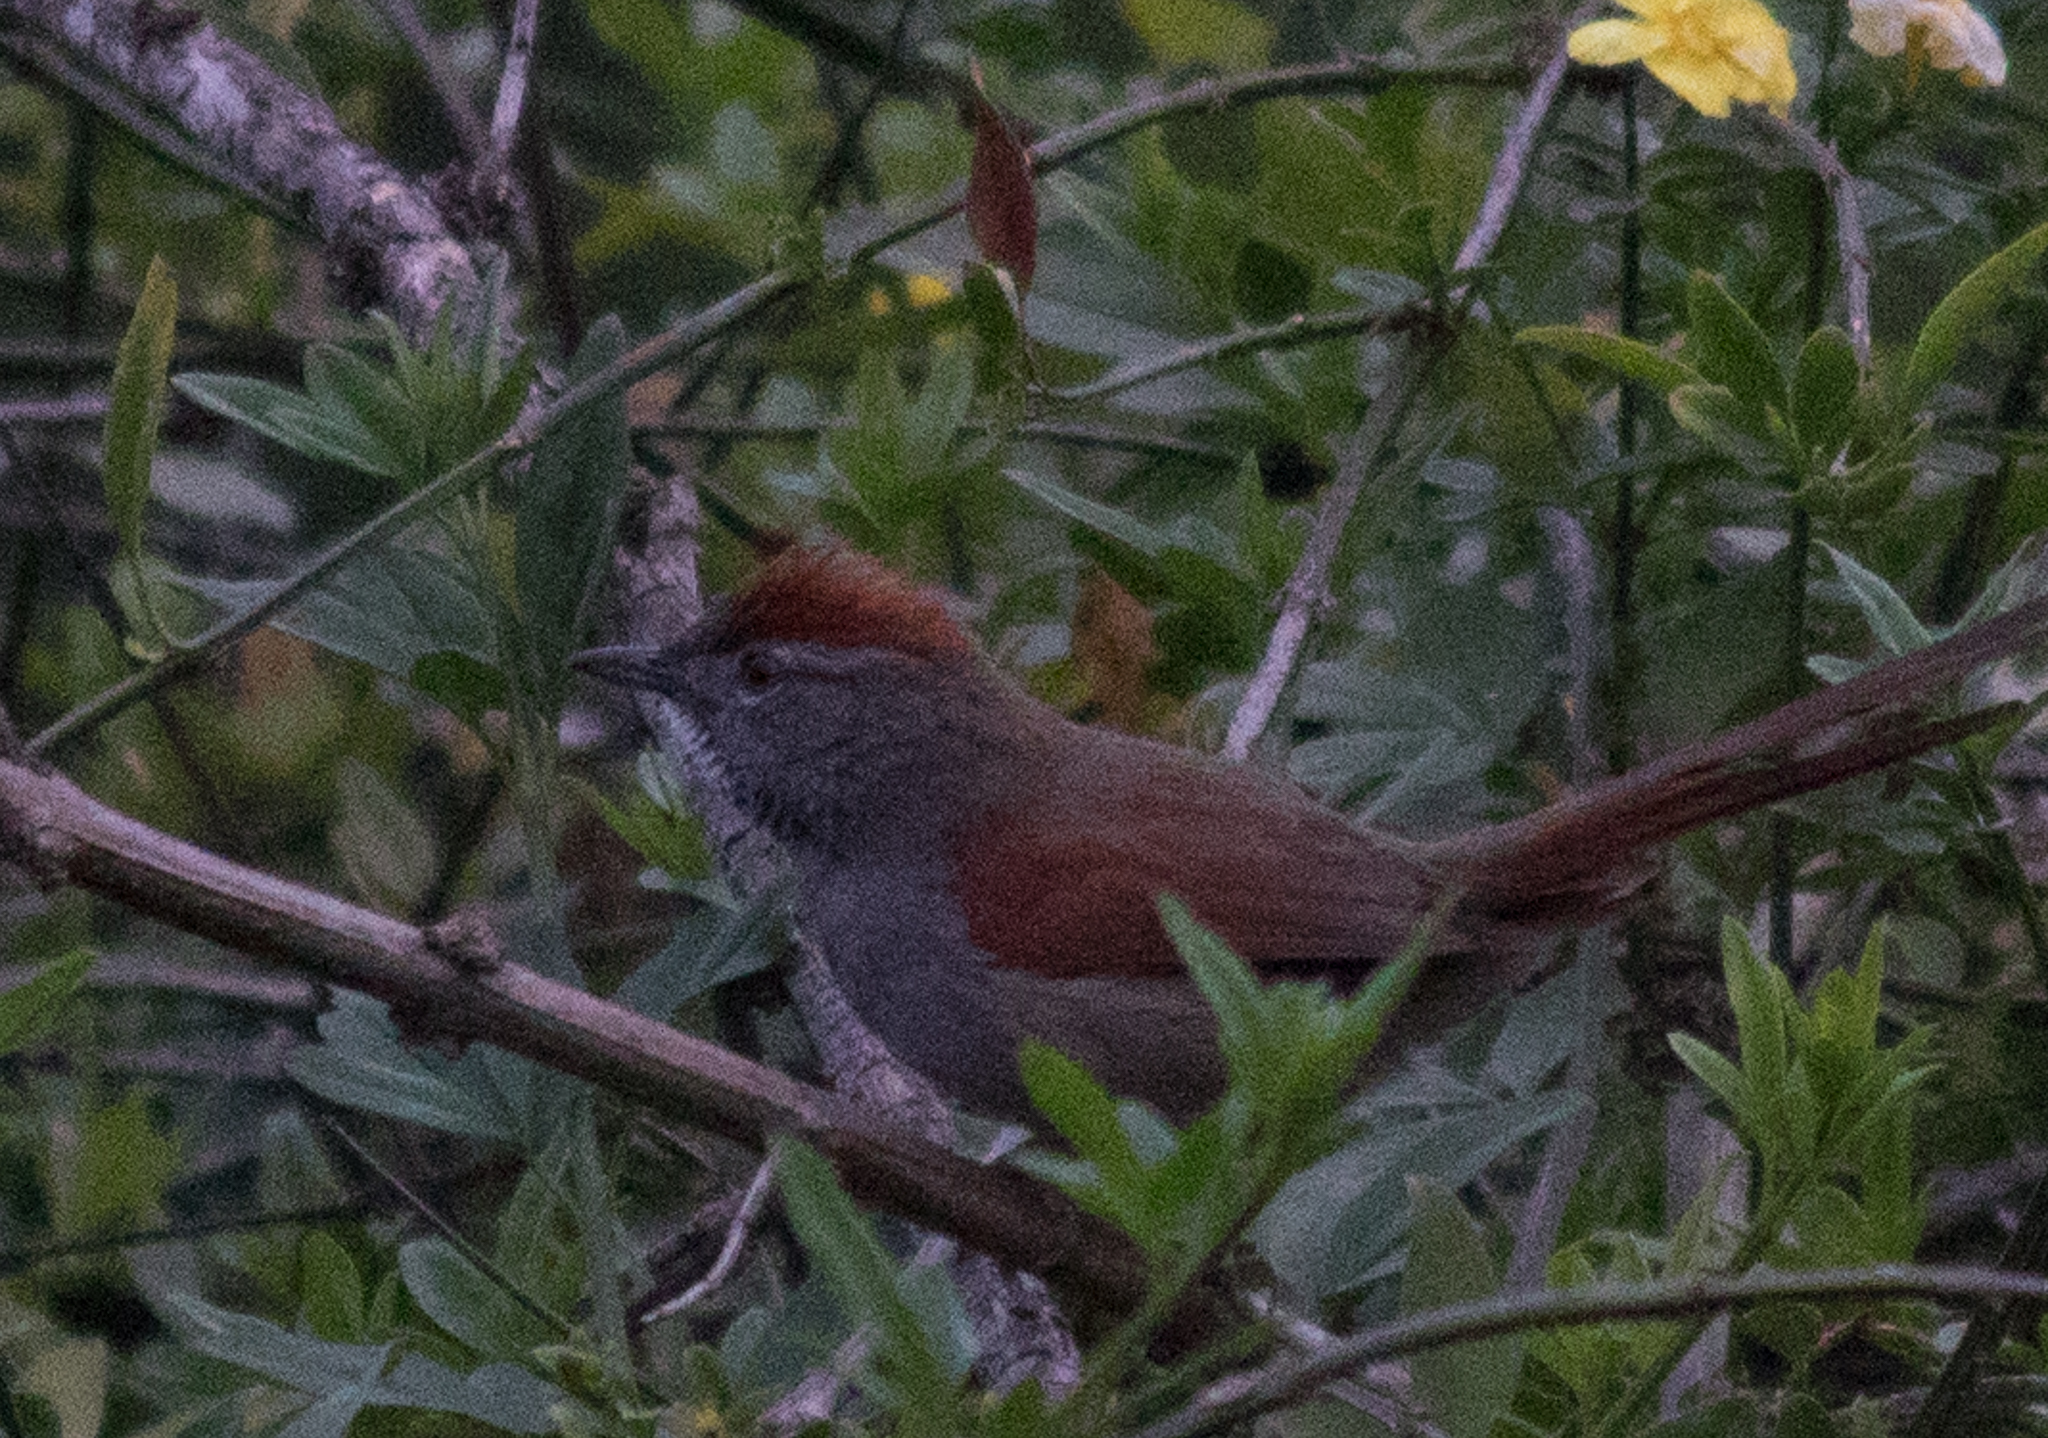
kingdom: Animalia
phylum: Chordata
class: Aves
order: Passeriformes
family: Furnariidae
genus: Synallaxis
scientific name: Synallaxis frontalis
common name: Sooty-fronted spinetail
